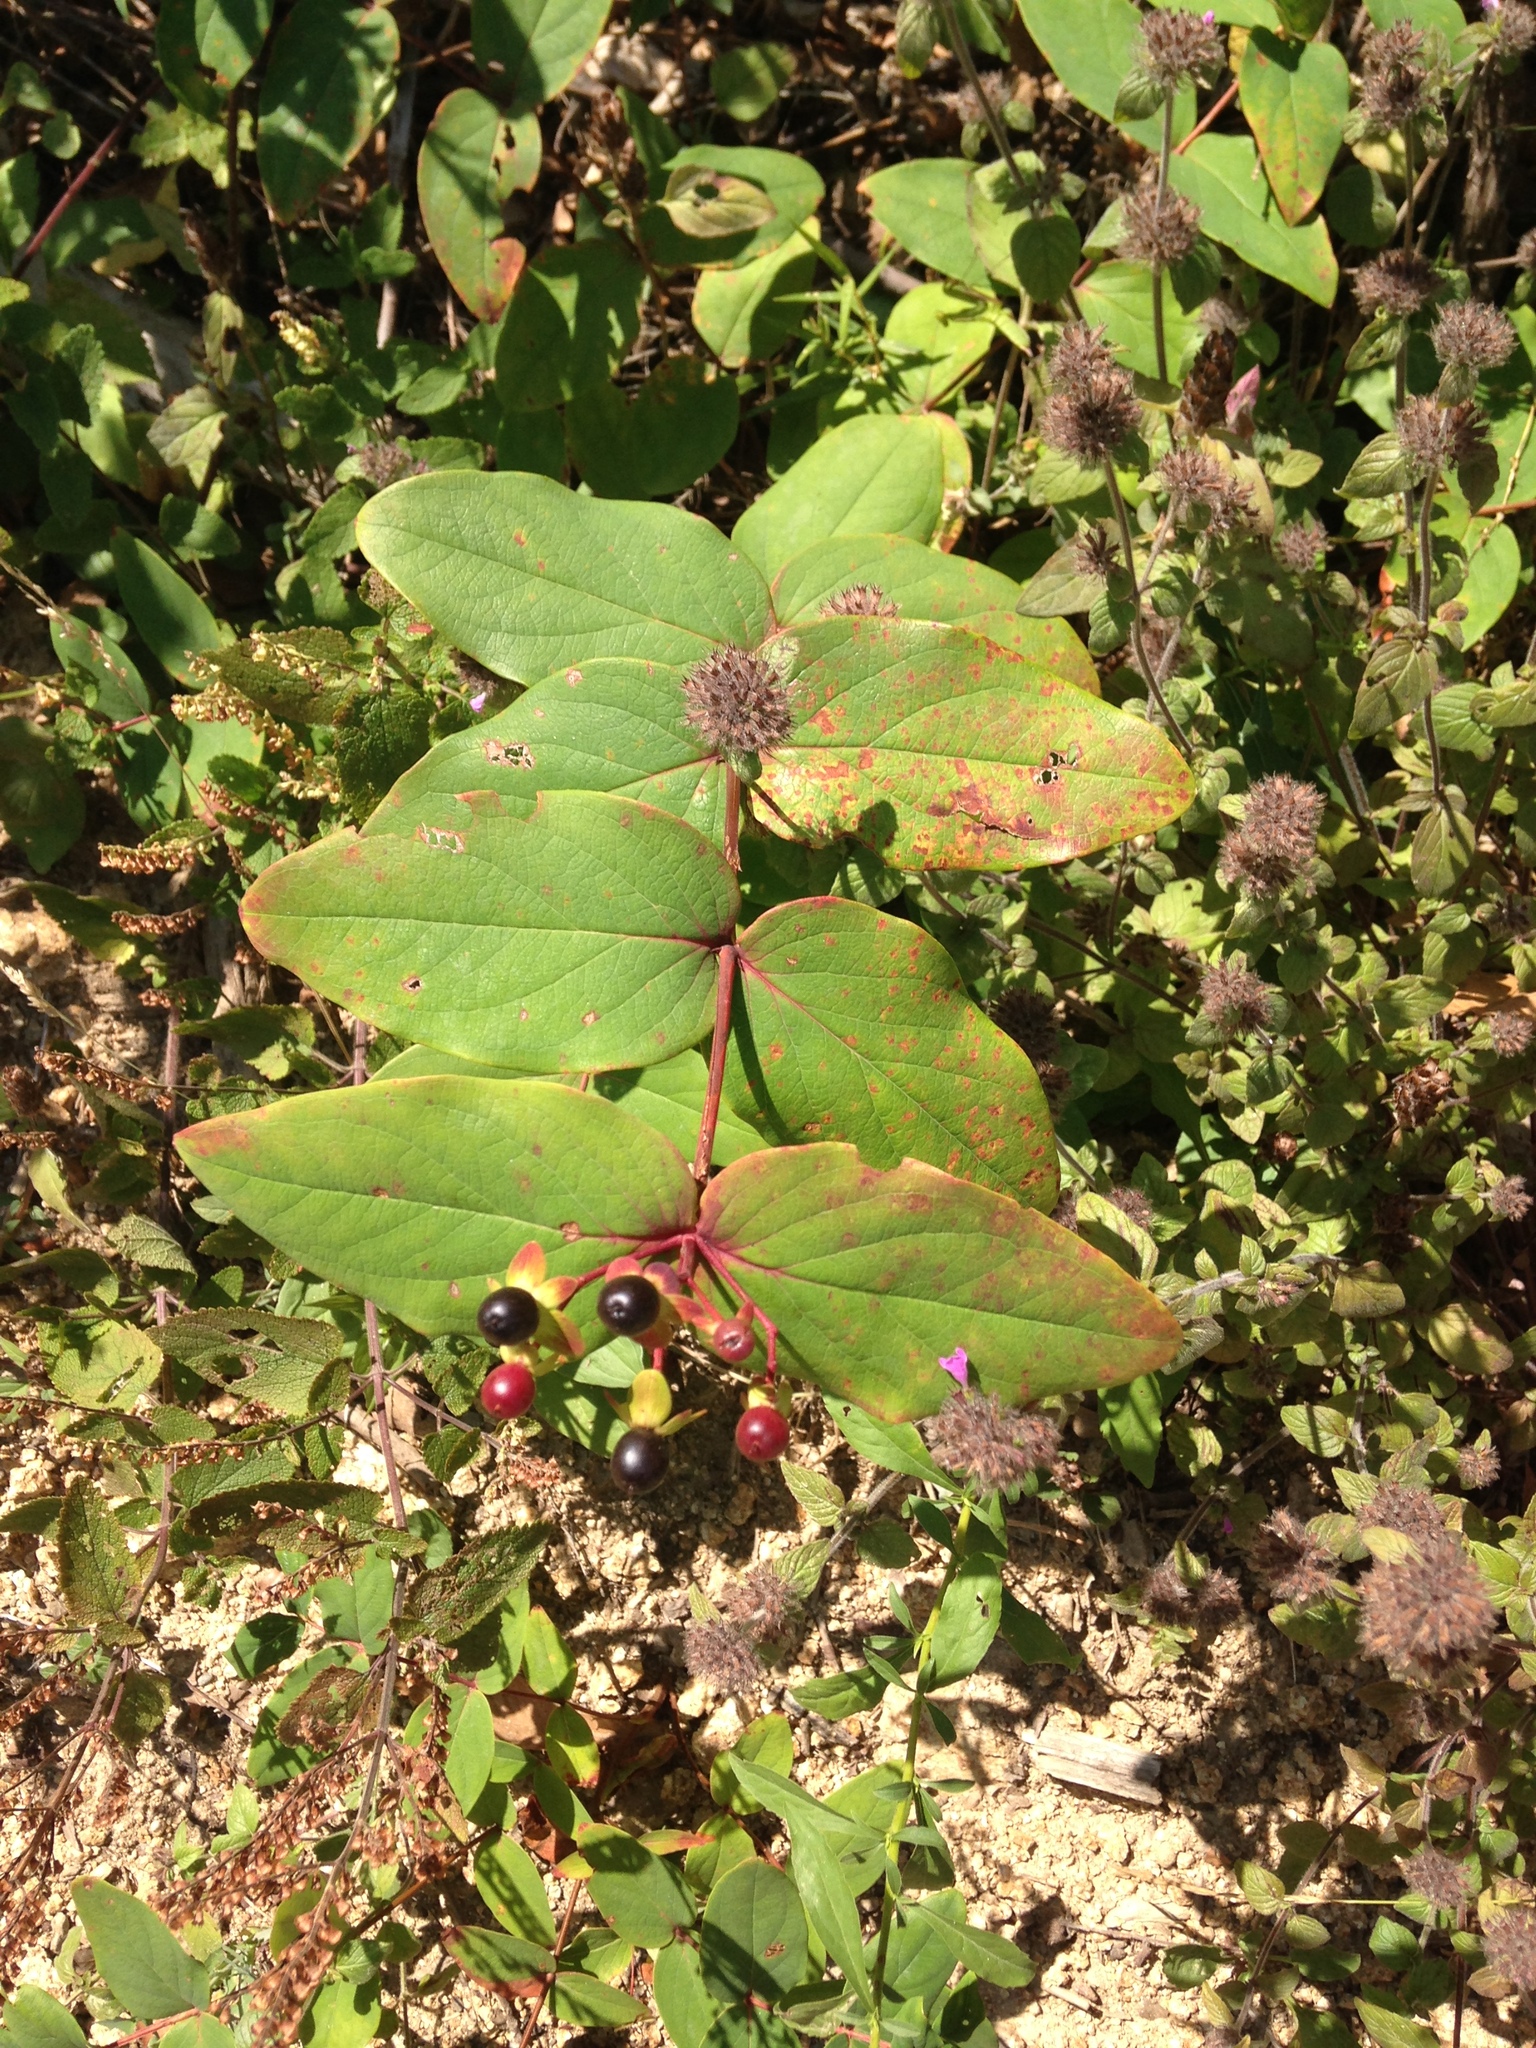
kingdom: Plantae
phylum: Tracheophyta
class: Magnoliopsida
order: Malpighiales
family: Hypericaceae
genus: Hypericum
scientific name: Hypericum androsaemum
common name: Sweet-amber
